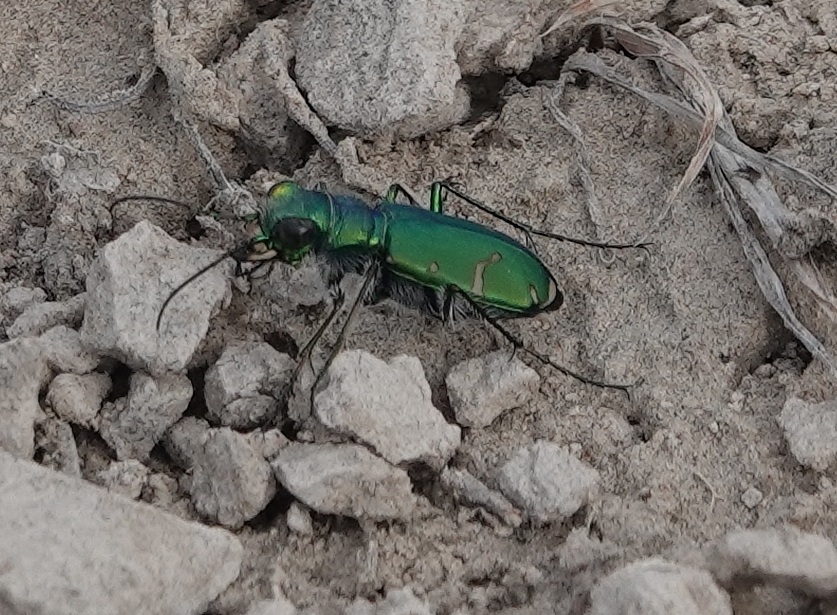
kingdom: Animalia
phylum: Arthropoda
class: Insecta
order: Coleoptera
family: Carabidae
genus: Cicindela
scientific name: Cicindela denverensis
